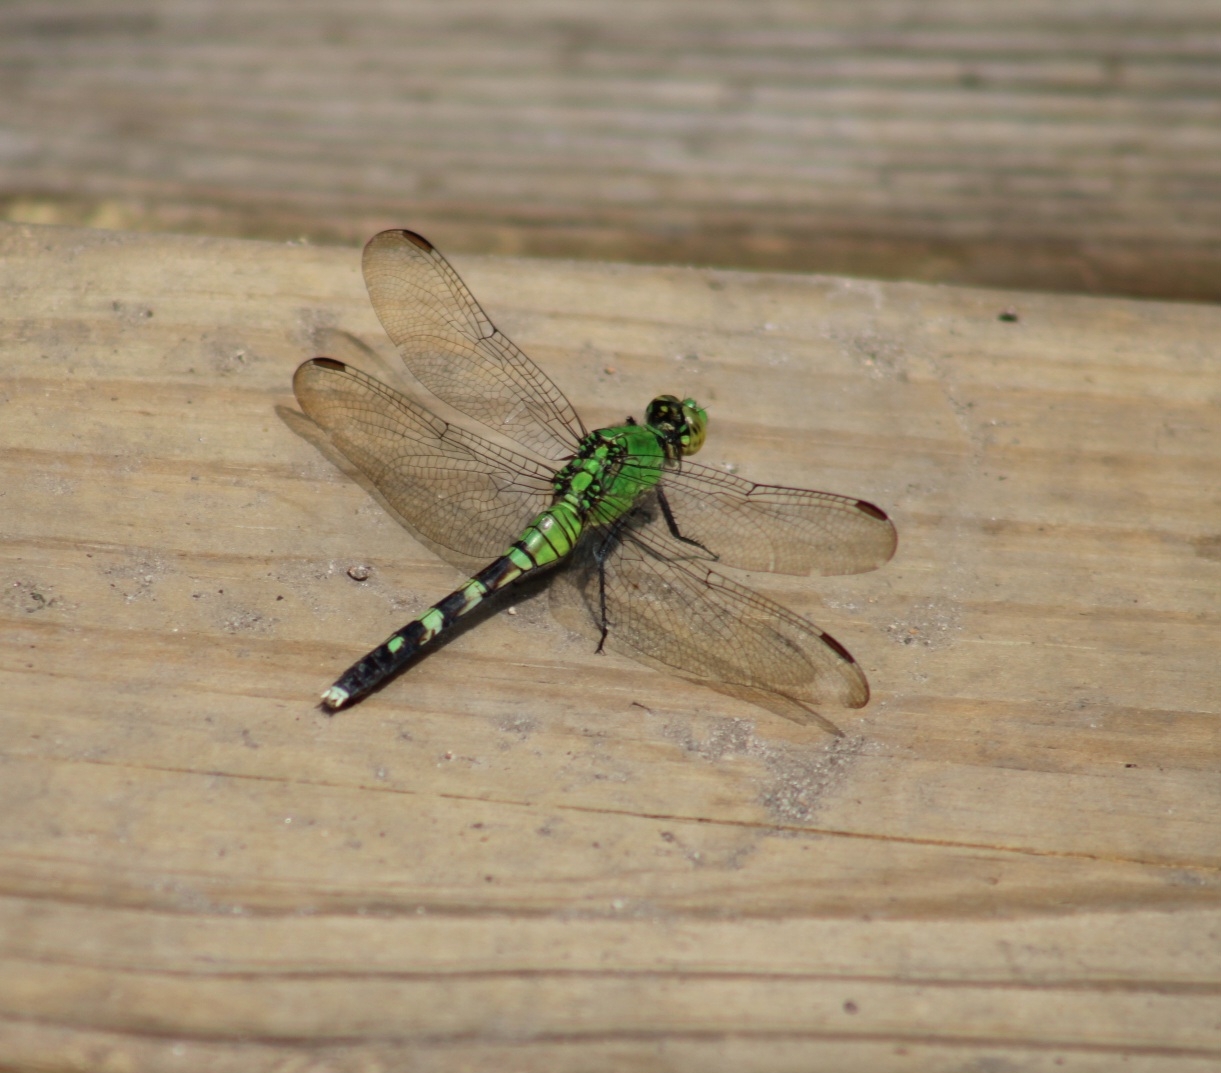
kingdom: Animalia
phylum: Arthropoda
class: Insecta
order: Odonata
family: Libellulidae
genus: Erythemis
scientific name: Erythemis simplicicollis
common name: Eastern pondhawk
